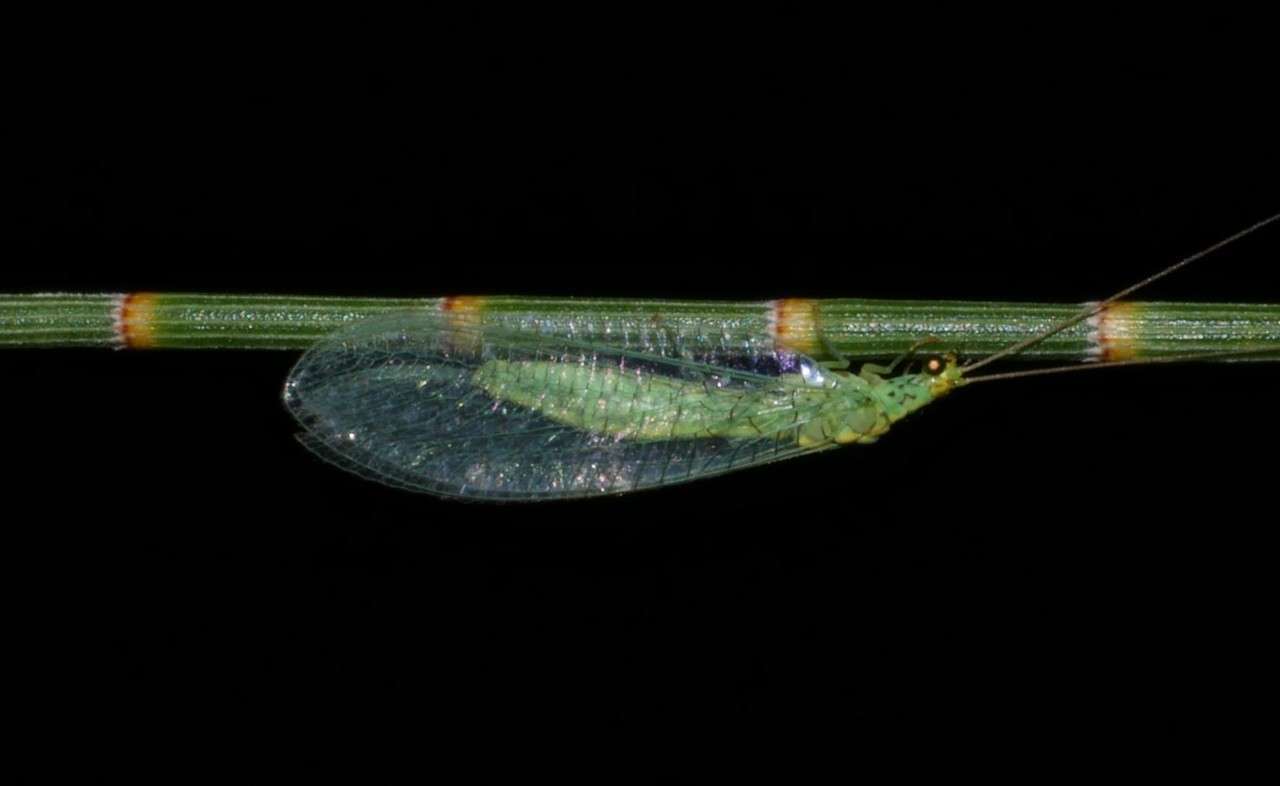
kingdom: Animalia
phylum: Arthropoda
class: Insecta
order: Neuroptera
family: Chrysopidae
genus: Pseudomallada
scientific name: Pseudomallada edwardsi
